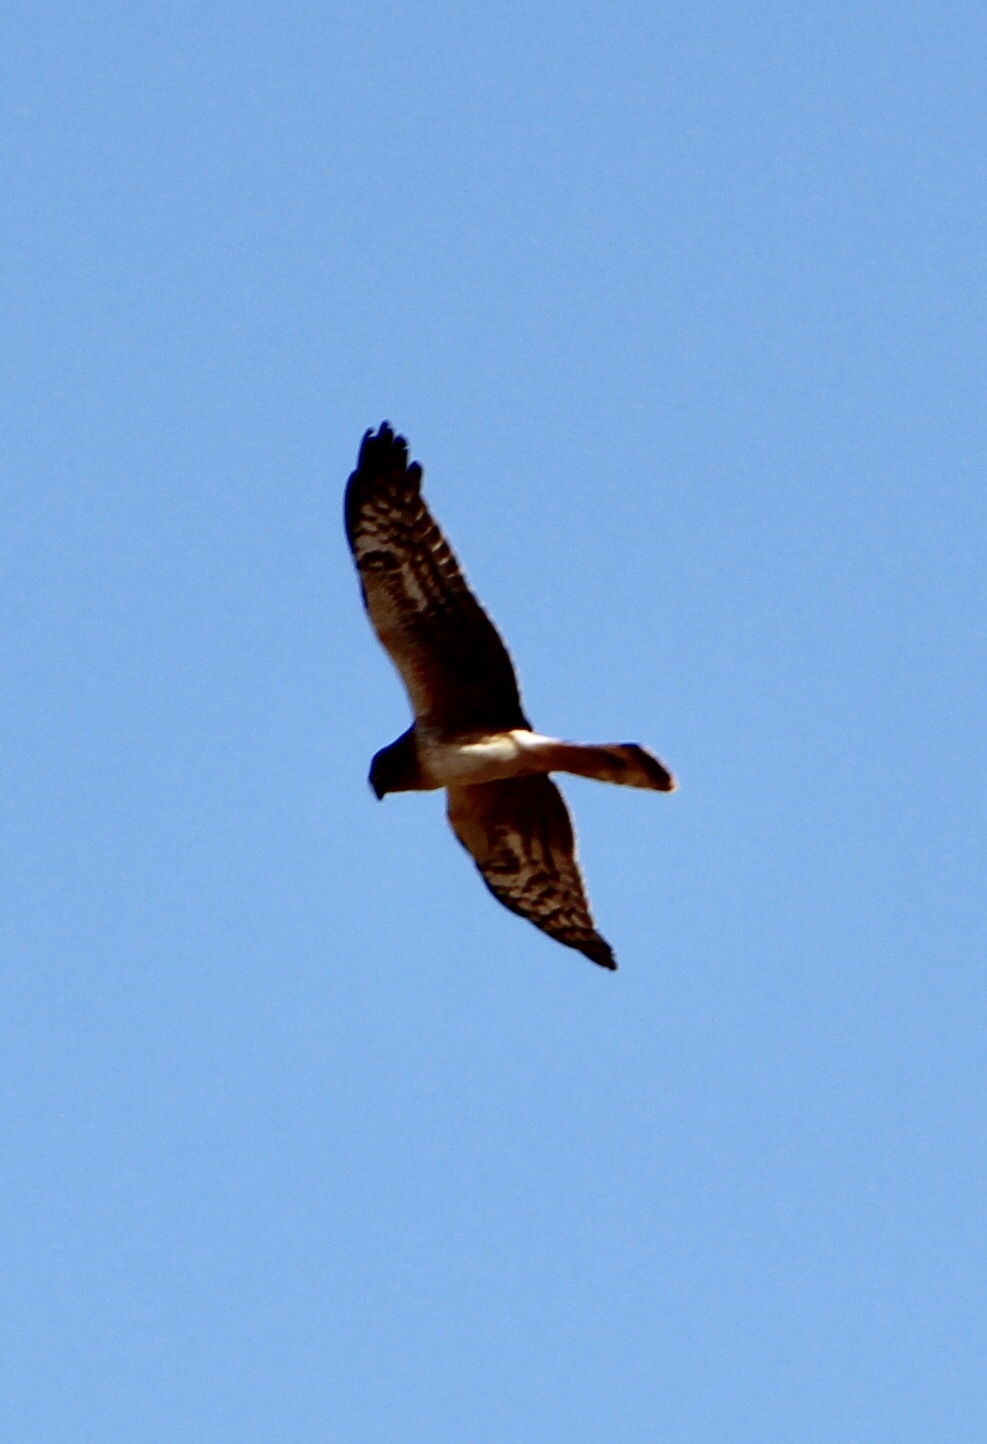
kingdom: Animalia
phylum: Chordata
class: Aves
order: Accipitriformes
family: Accipitridae
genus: Circus
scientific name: Circus cyaneus
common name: Hen harrier
